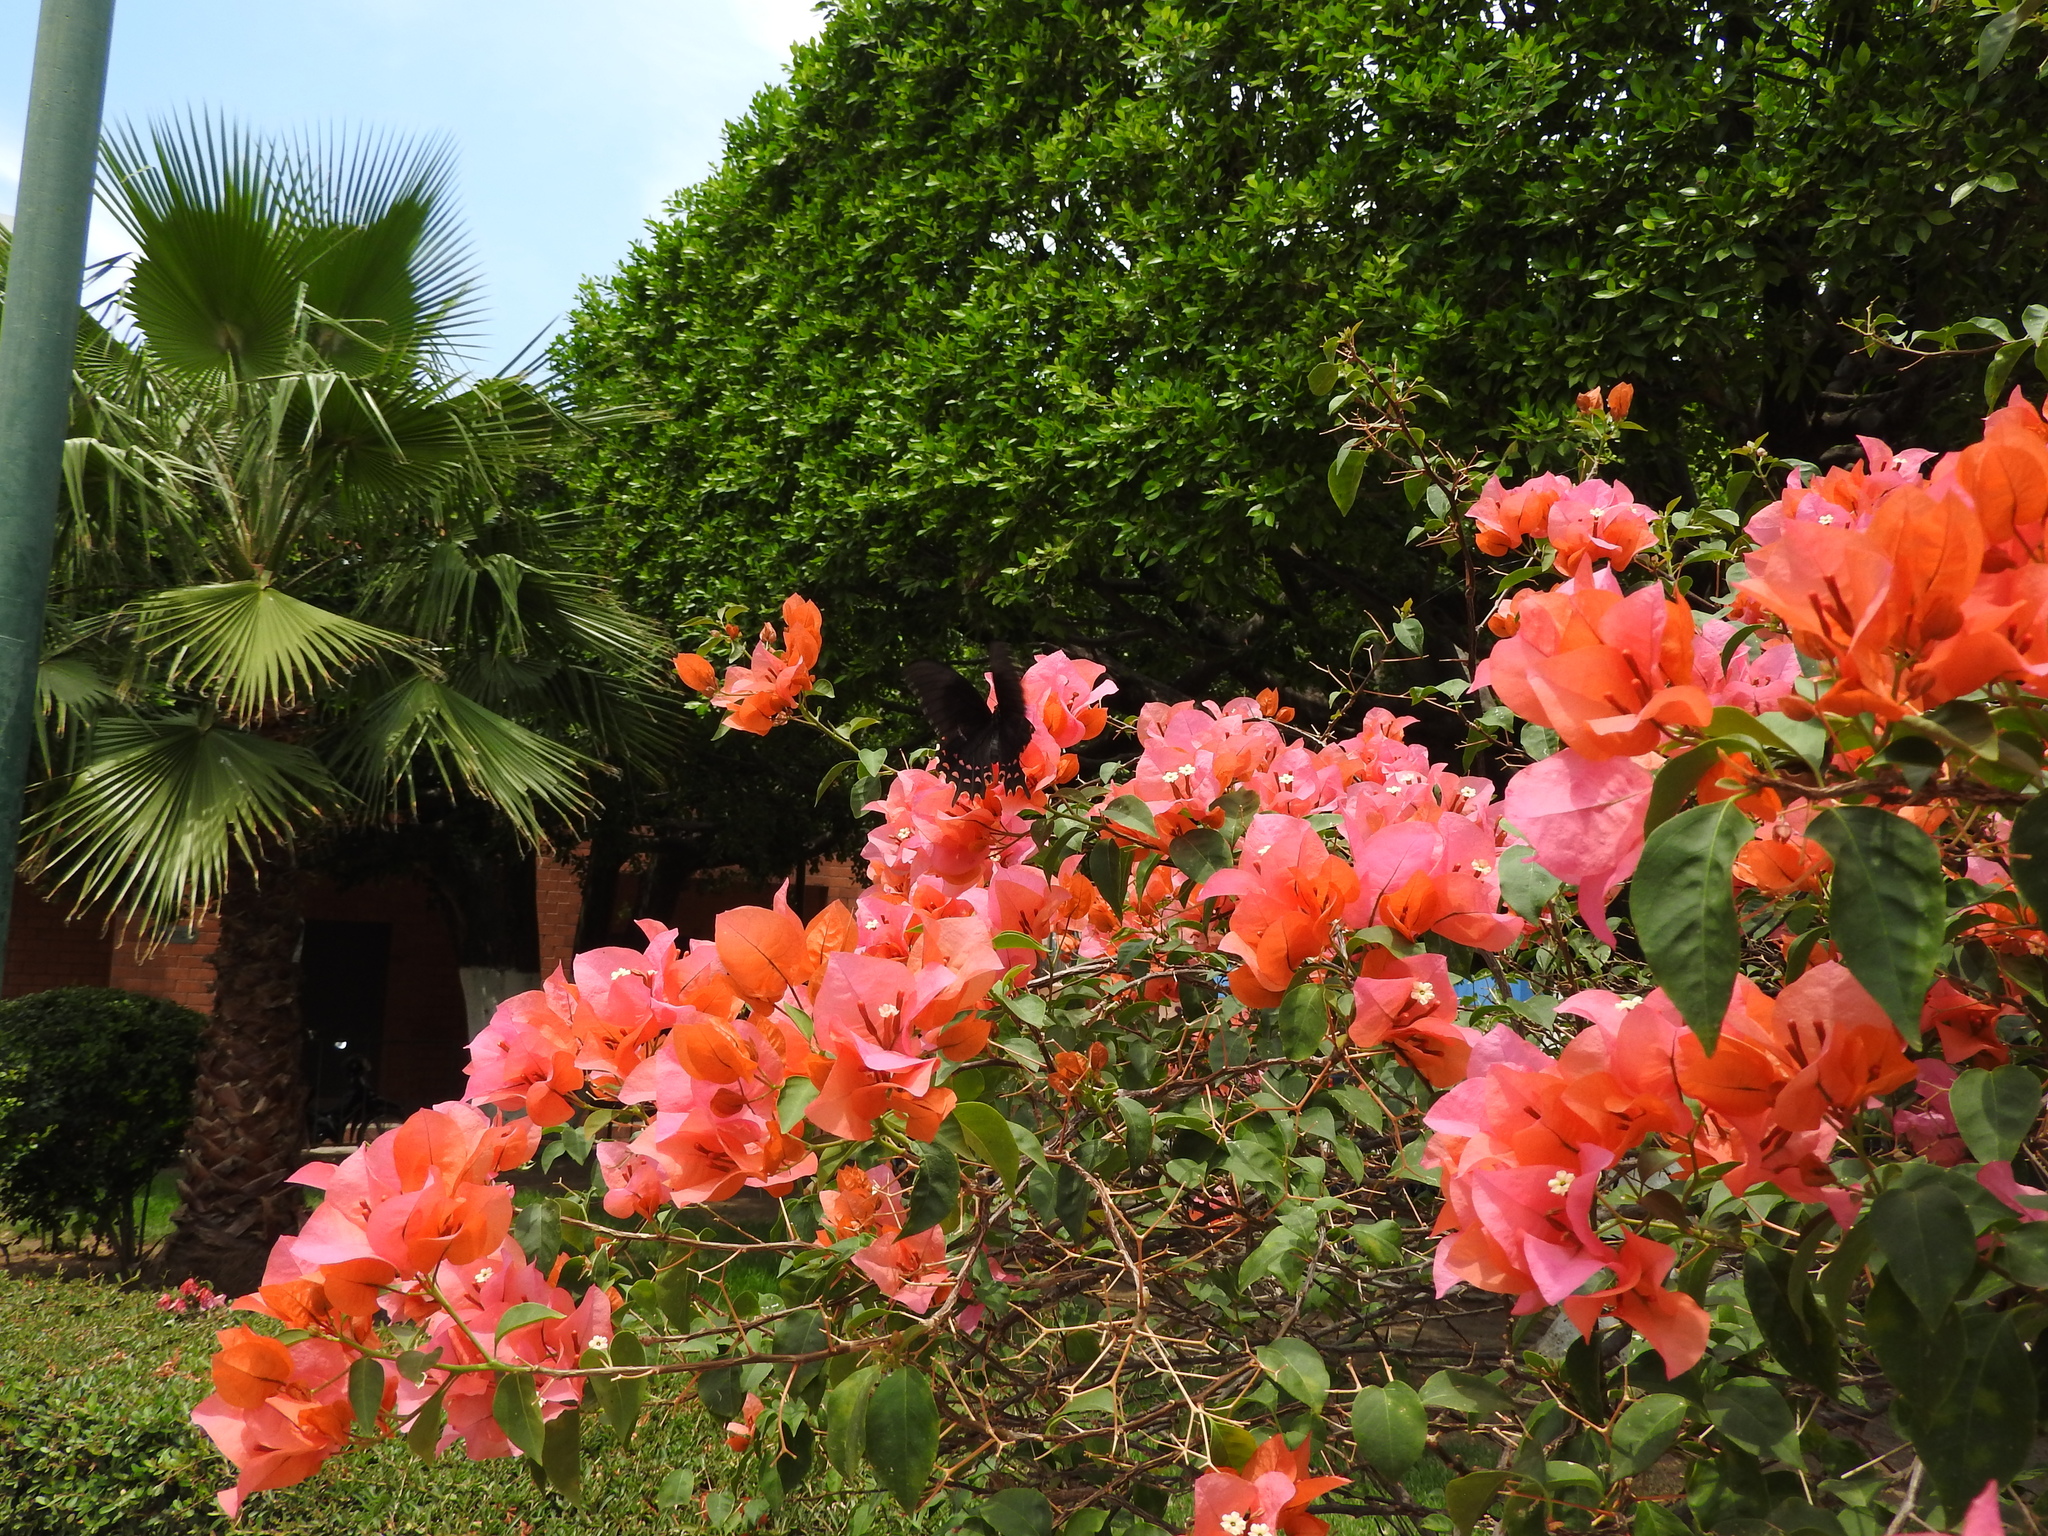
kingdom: Animalia
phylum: Arthropoda
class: Insecta
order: Lepidoptera
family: Papilionidae
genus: Heraclides
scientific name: Heraclides rogeri
